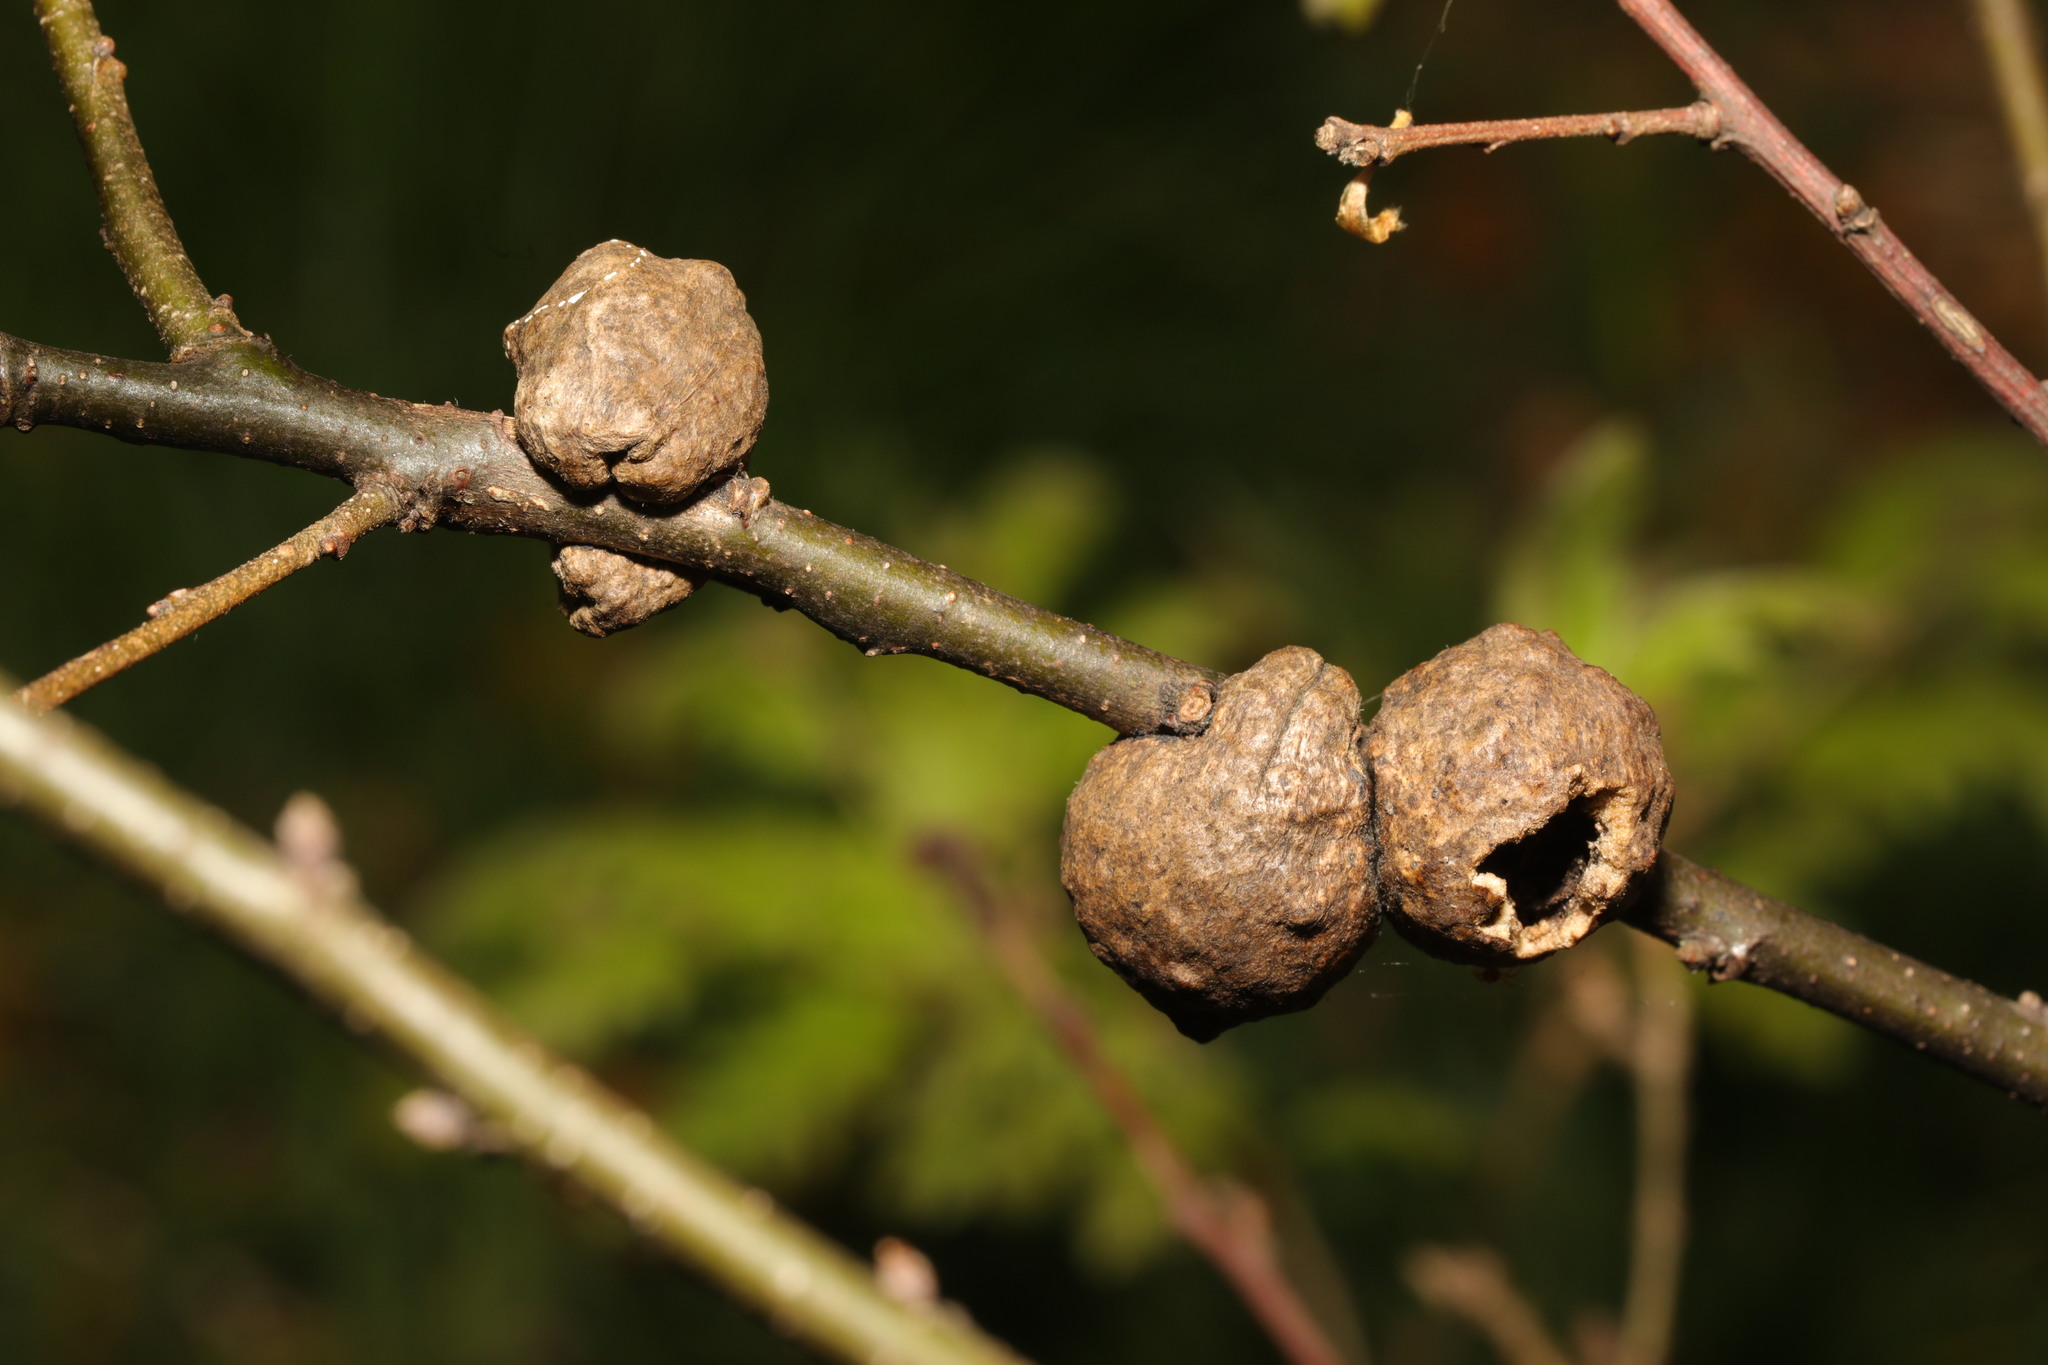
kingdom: Animalia
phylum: Arthropoda
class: Insecta
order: Hymenoptera
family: Cynipidae
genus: Aphelonyx
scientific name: Aphelonyx cerricola
